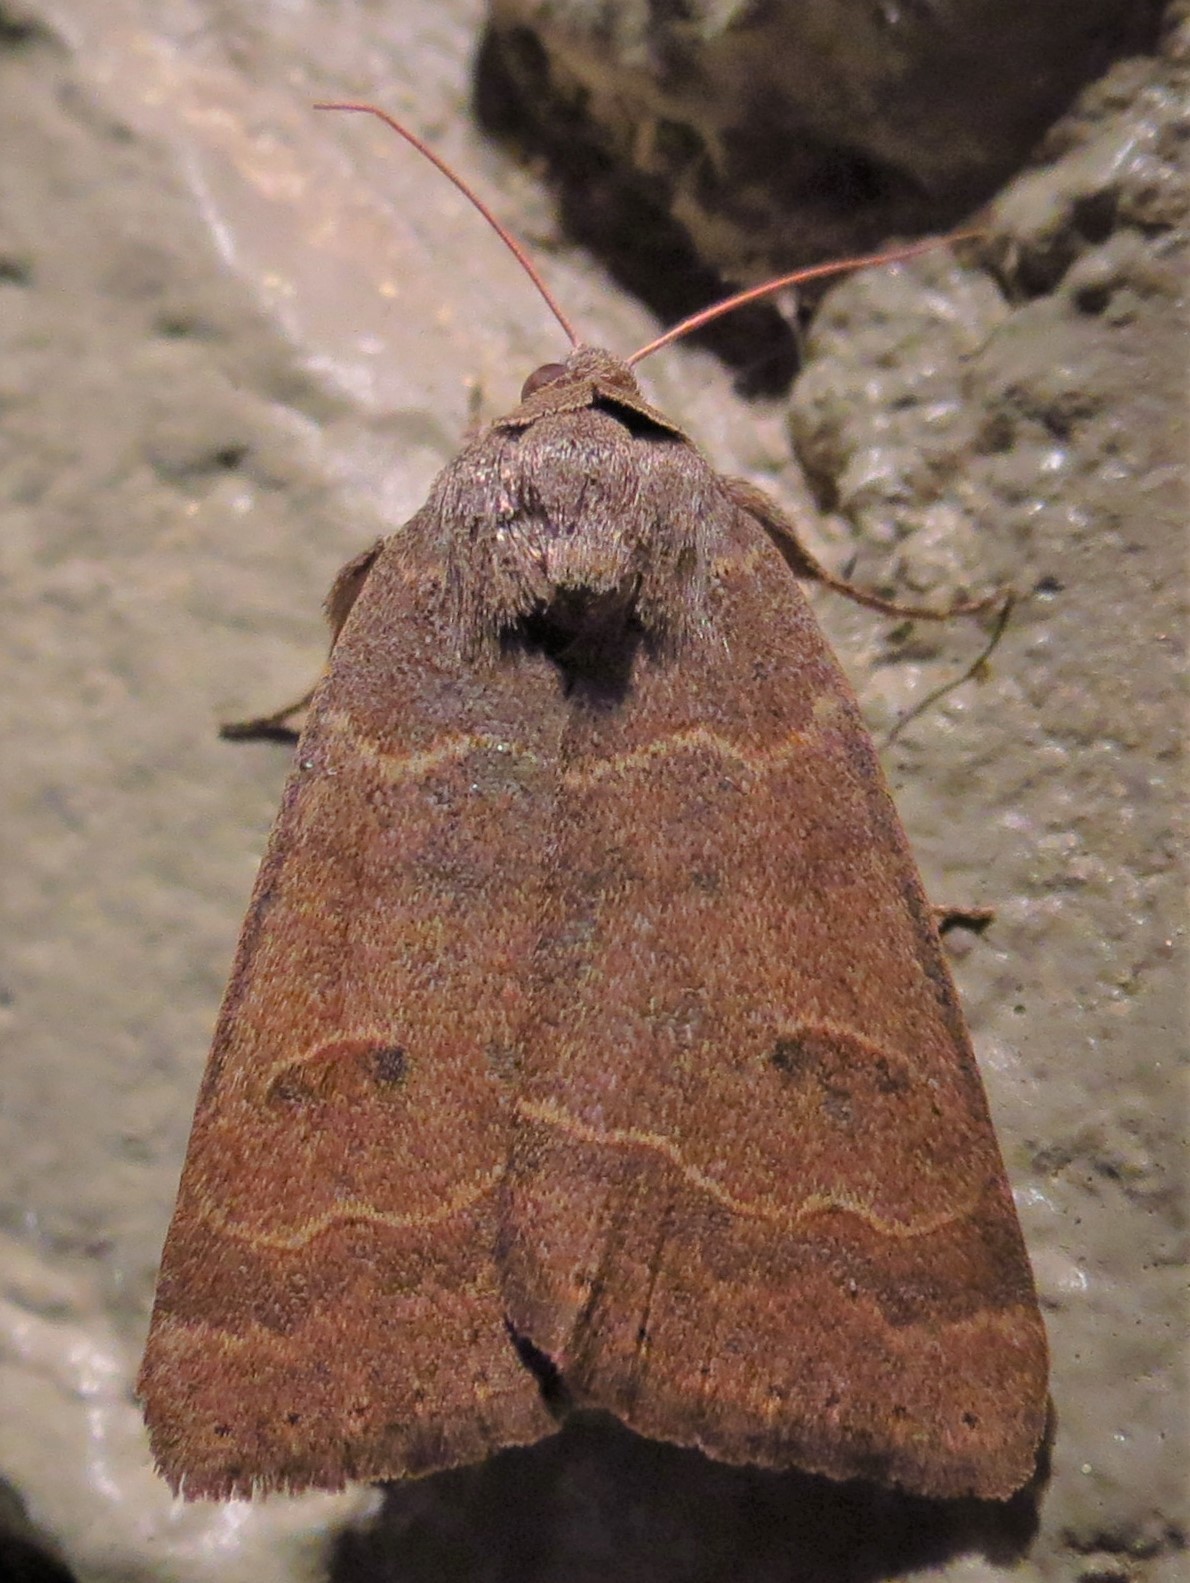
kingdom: Animalia
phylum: Arthropoda
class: Insecta
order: Lepidoptera
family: Erebidae
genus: Phoberia
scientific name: Phoberia atomaris
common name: Common oak moth
